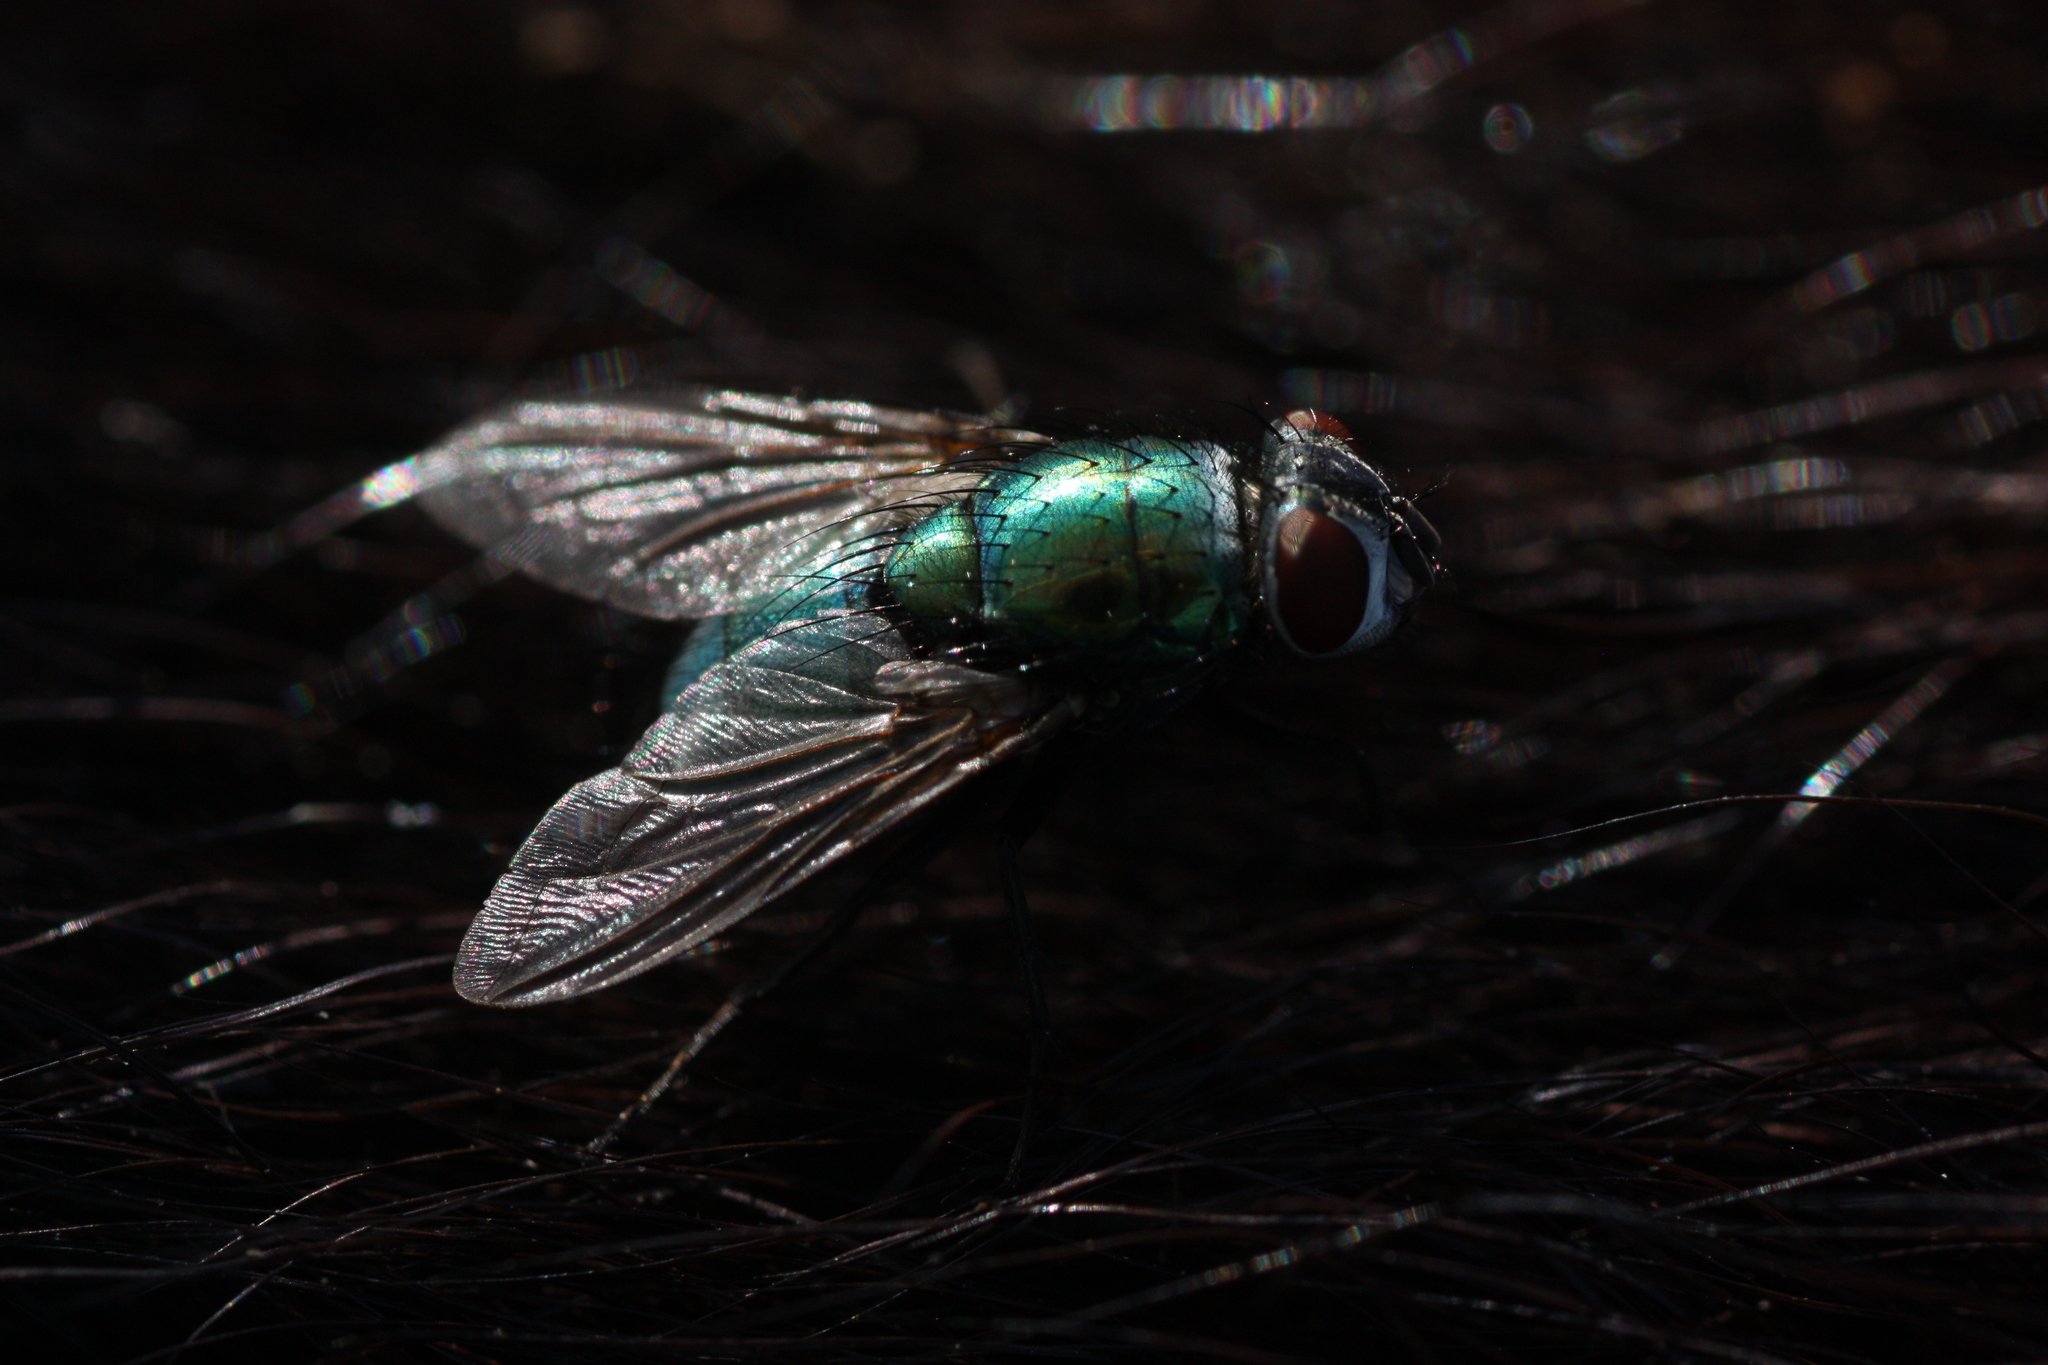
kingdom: Animalia
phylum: Arthropoda
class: Insecta
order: Diptera
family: Calliphoridae
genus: Lucilia
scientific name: Lucilia
